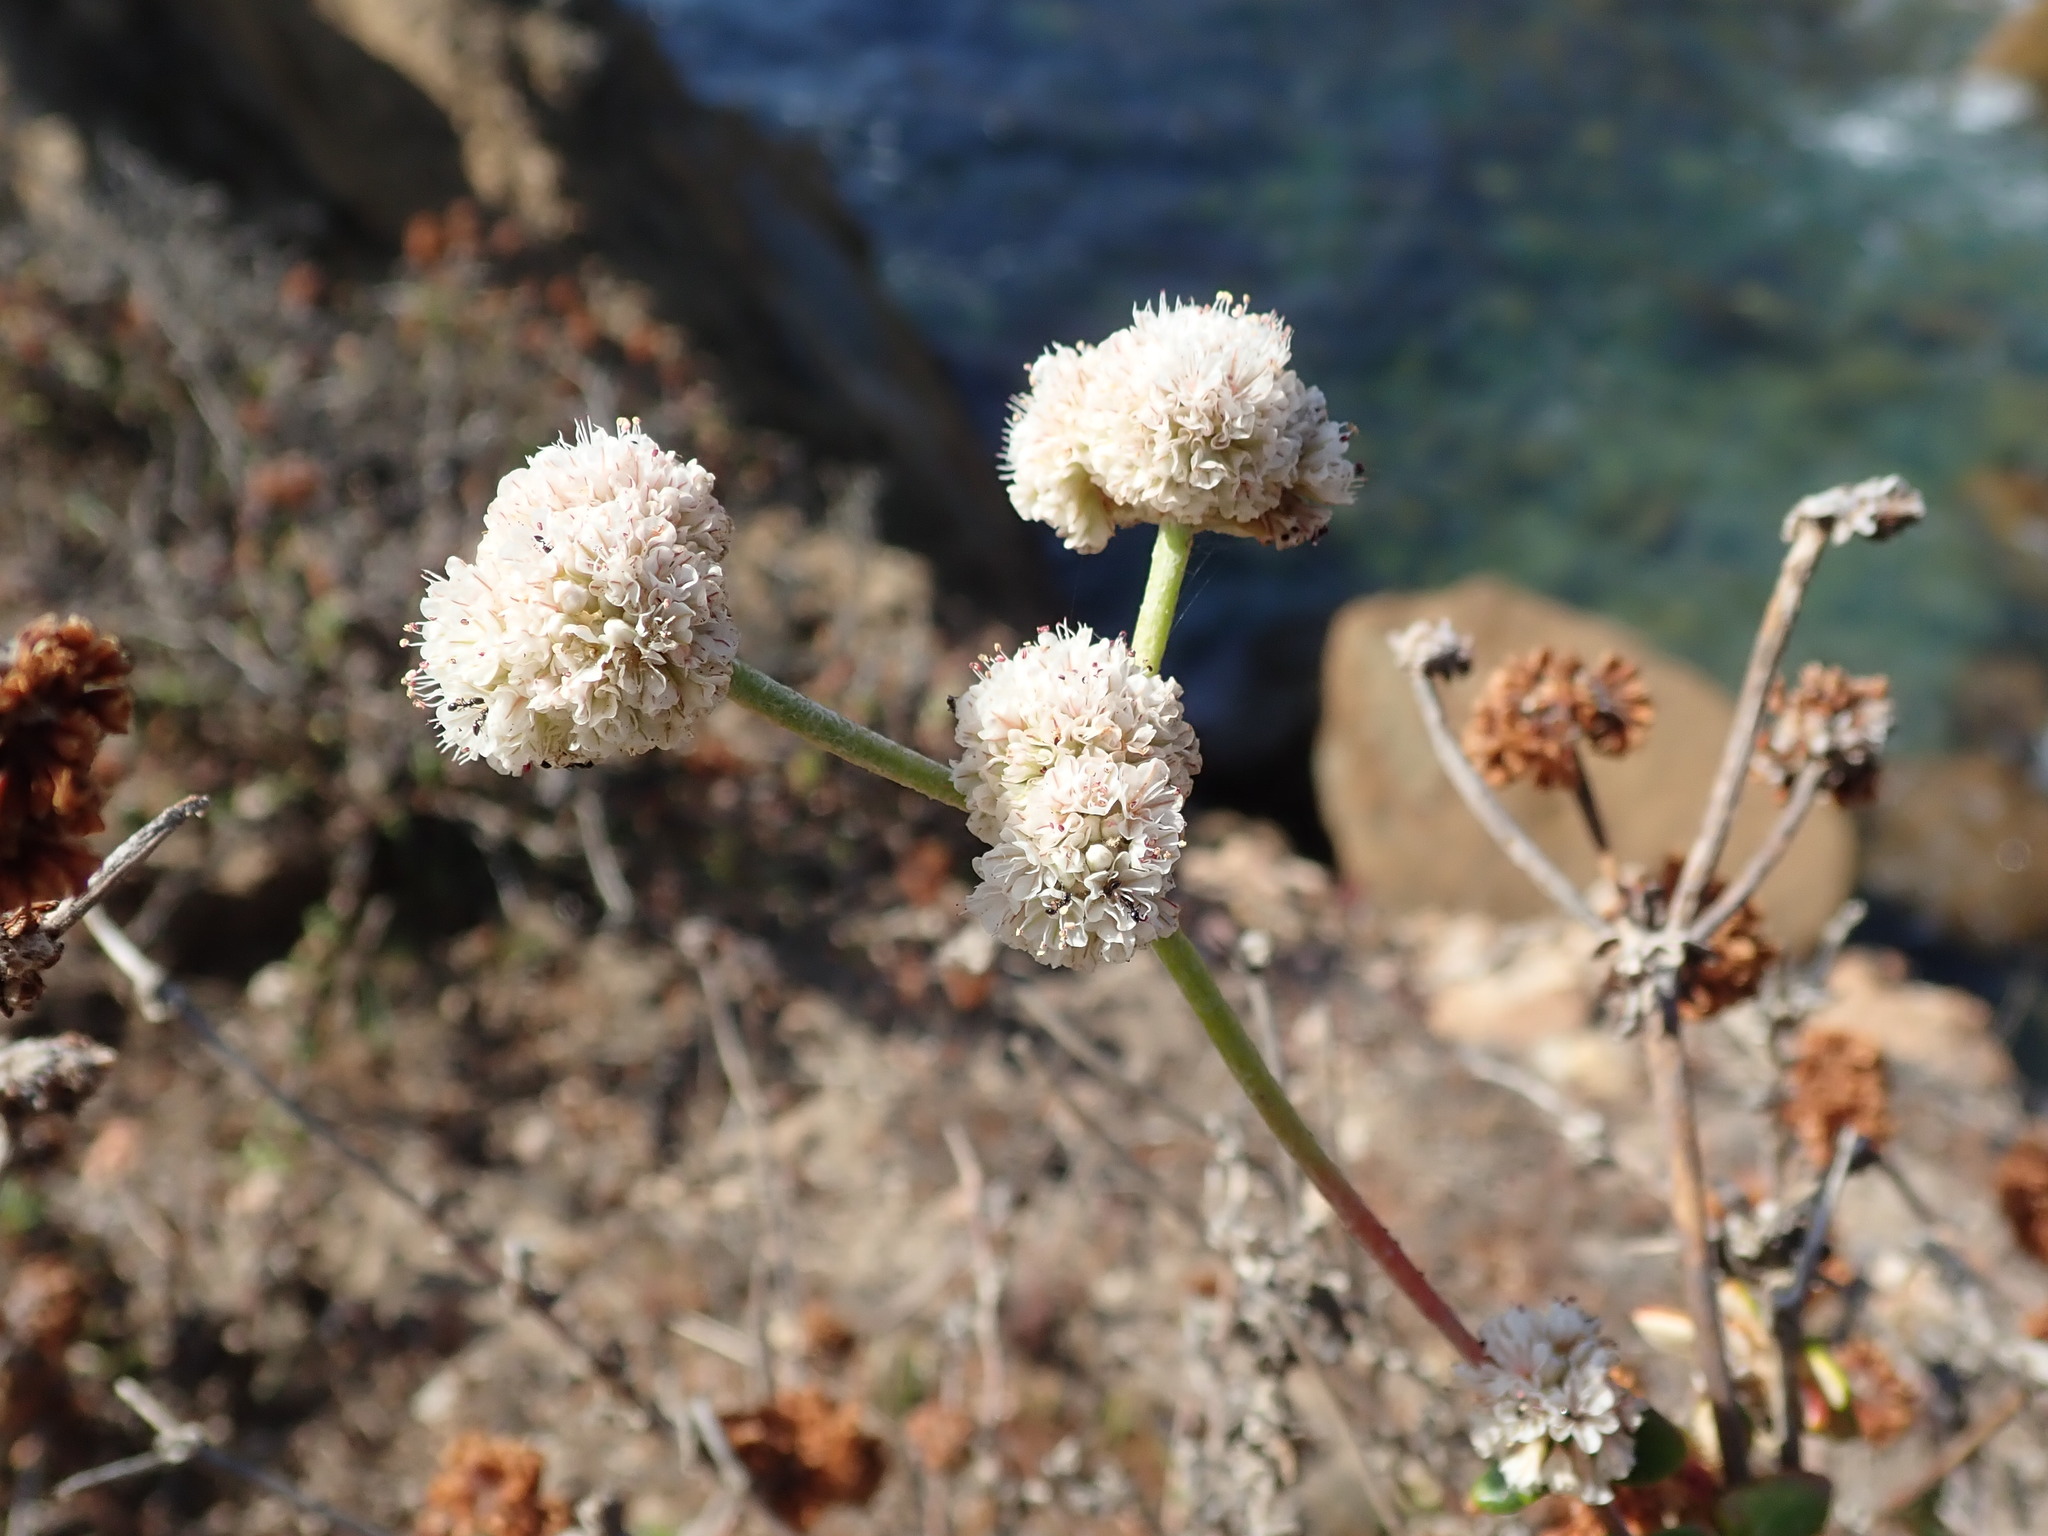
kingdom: Plantae
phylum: Tracheophyta
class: Magnoliopsida
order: Caryophyllales
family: Polygonaceae
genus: Eriogonum
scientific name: Eriogonum parvifolium
